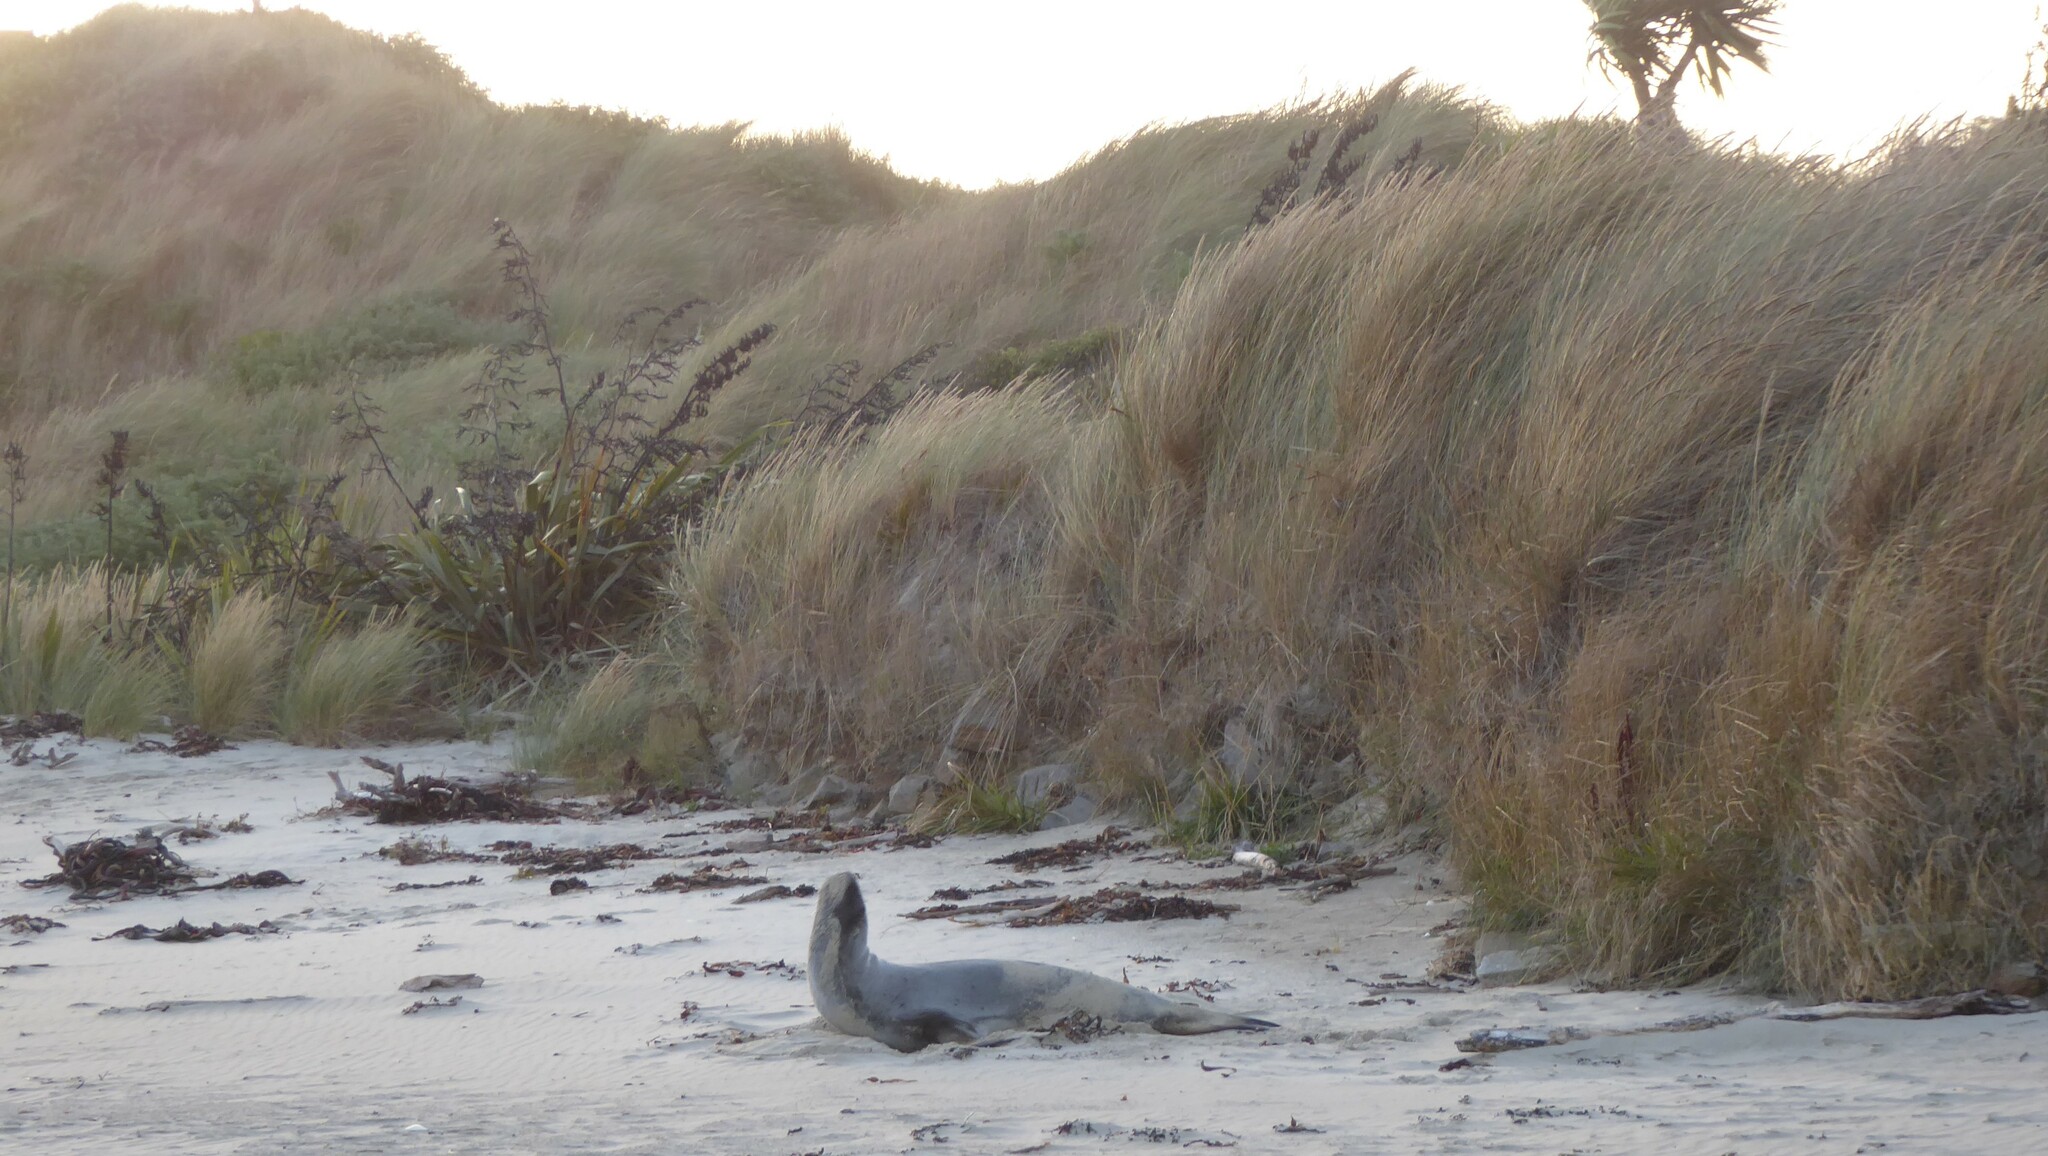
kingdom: Animalia
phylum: Chordata
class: Mammalia
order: Carnivora
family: Otariidae
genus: Phocarctos
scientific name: Phocarctos hookeri
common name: New zealand sea lion
